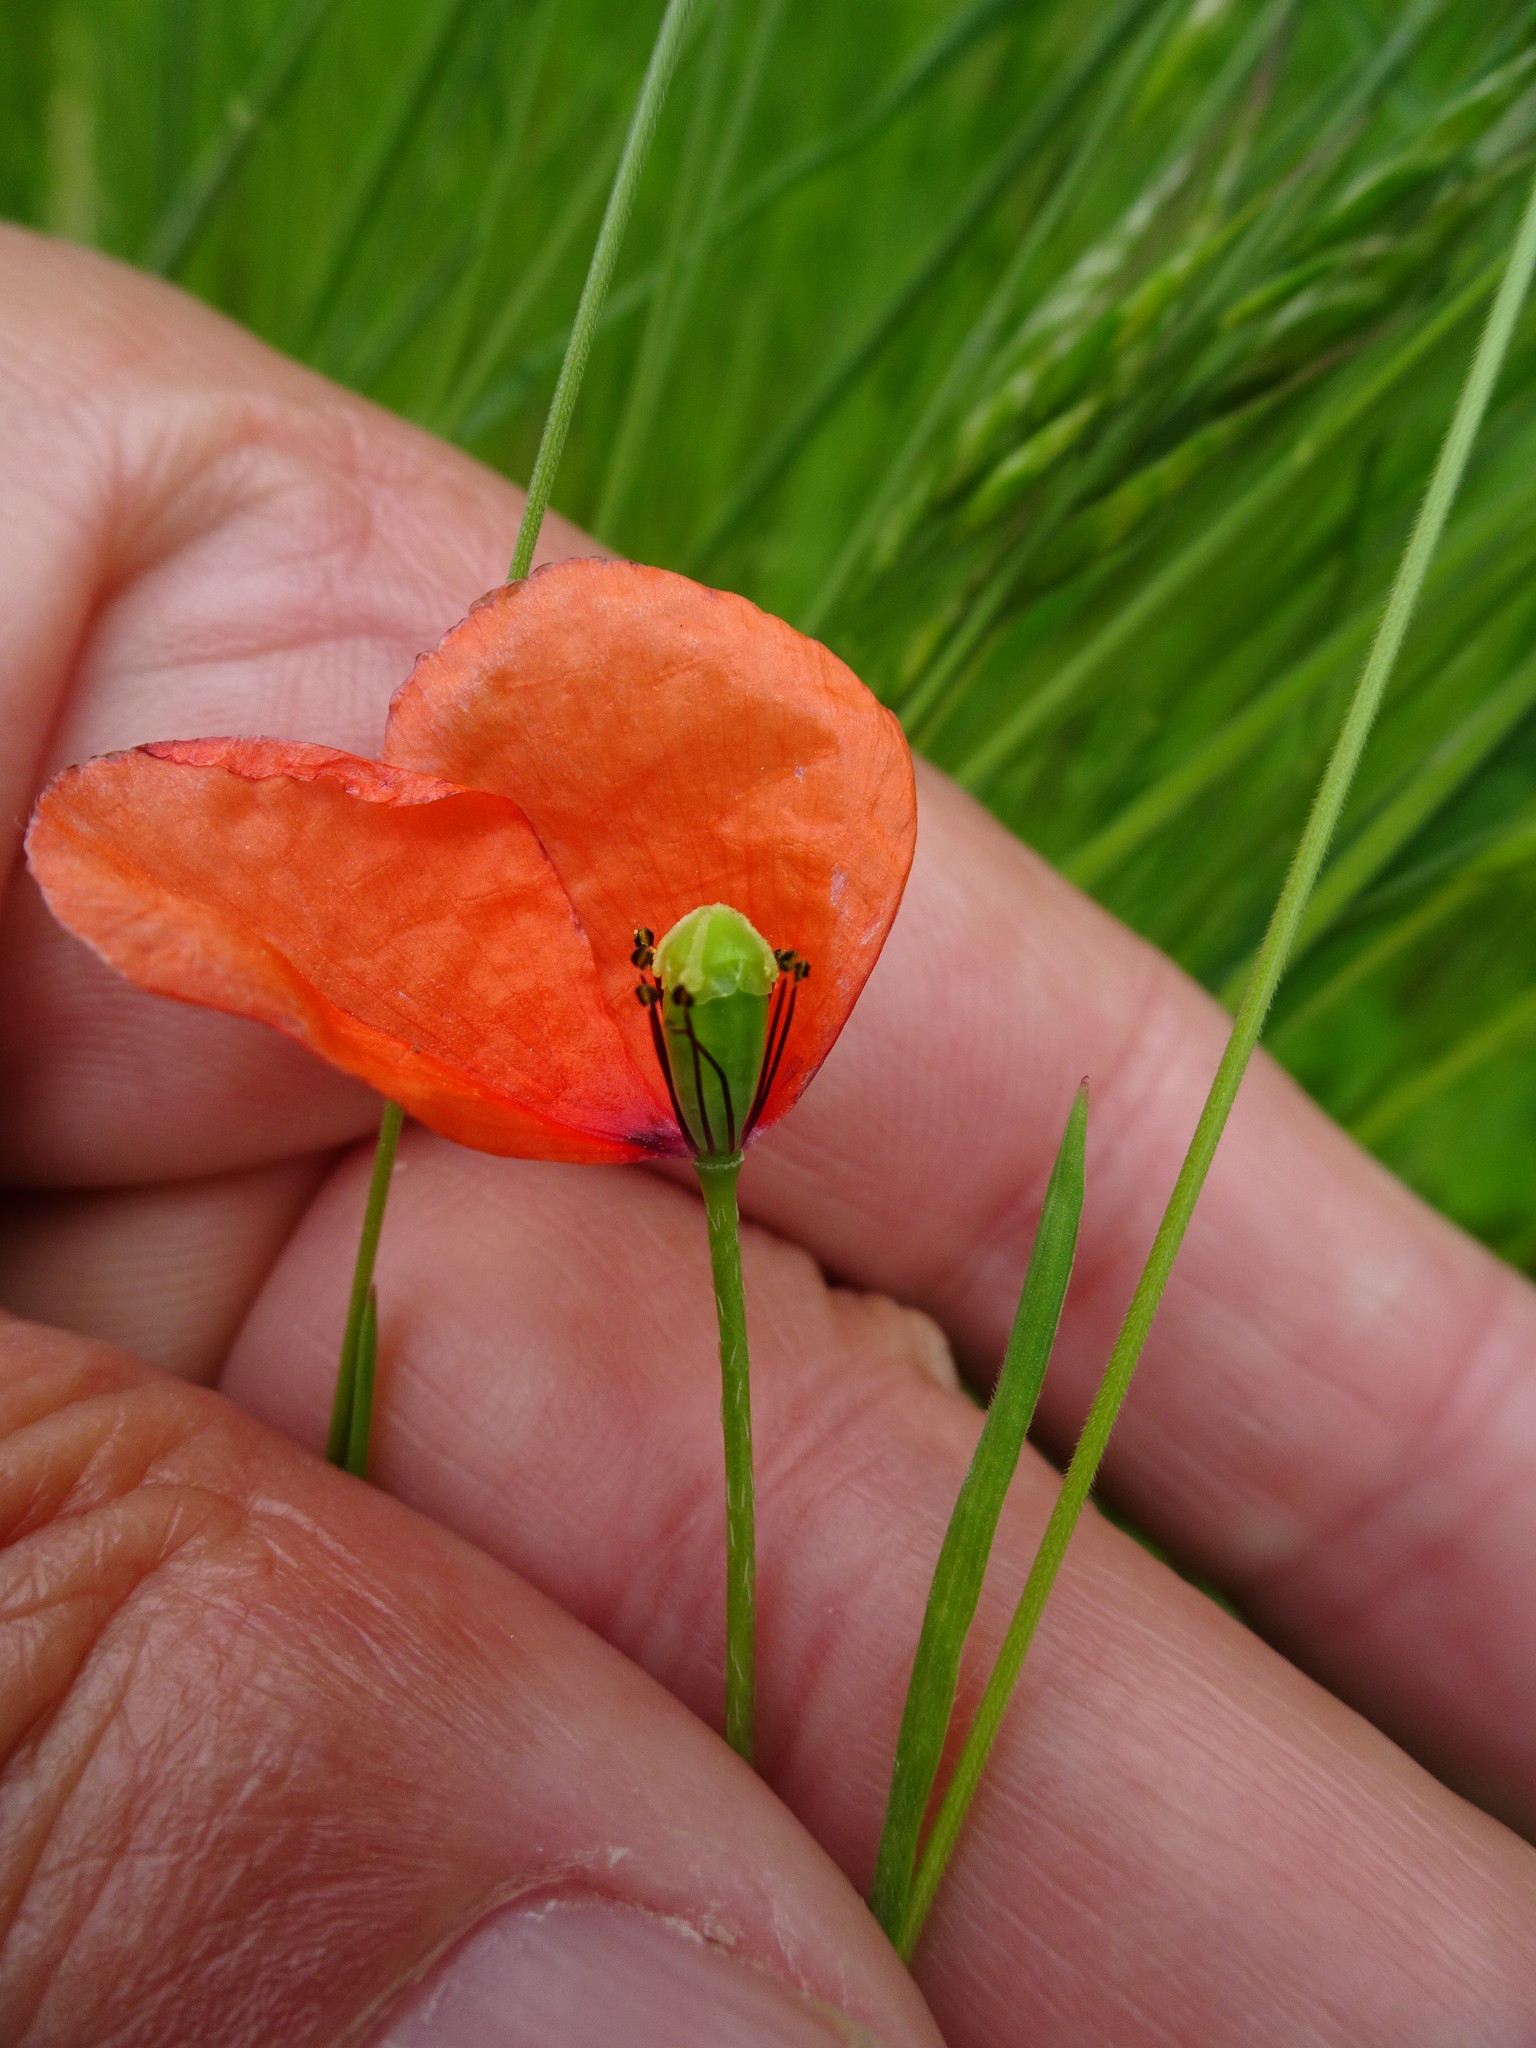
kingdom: Plantae
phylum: Tracheophyta
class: Magnoliopsida
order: Ranunculales
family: Papaveraceae
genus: Papaver
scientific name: Papaver dubium
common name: Long-headed poppy
